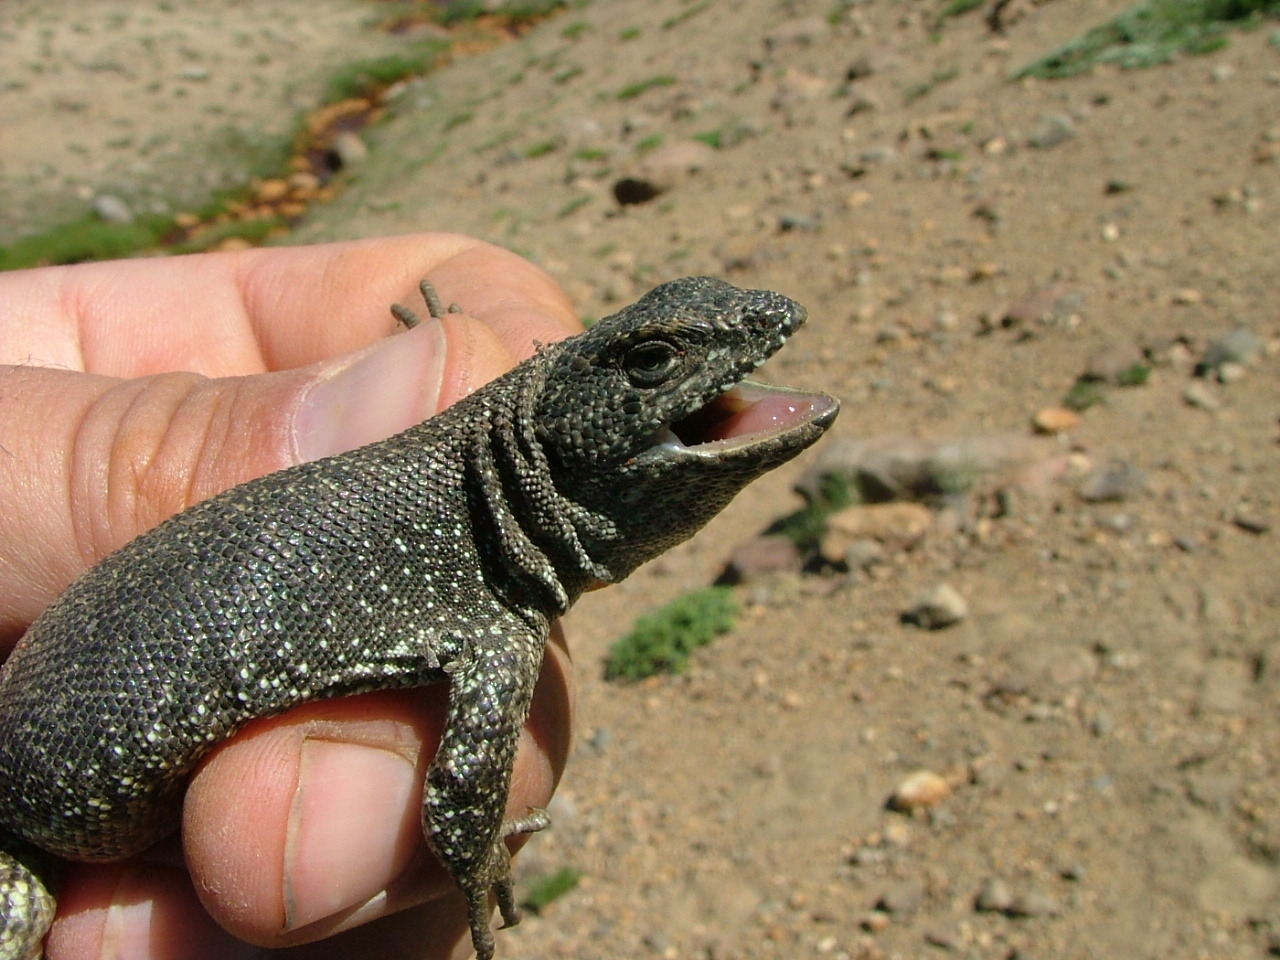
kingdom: Animalia
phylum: Chordata
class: Squamata
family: Liolaemidae
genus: Liolaemus
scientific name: Liolaemus buergeri
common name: Buerger's tree iguana
